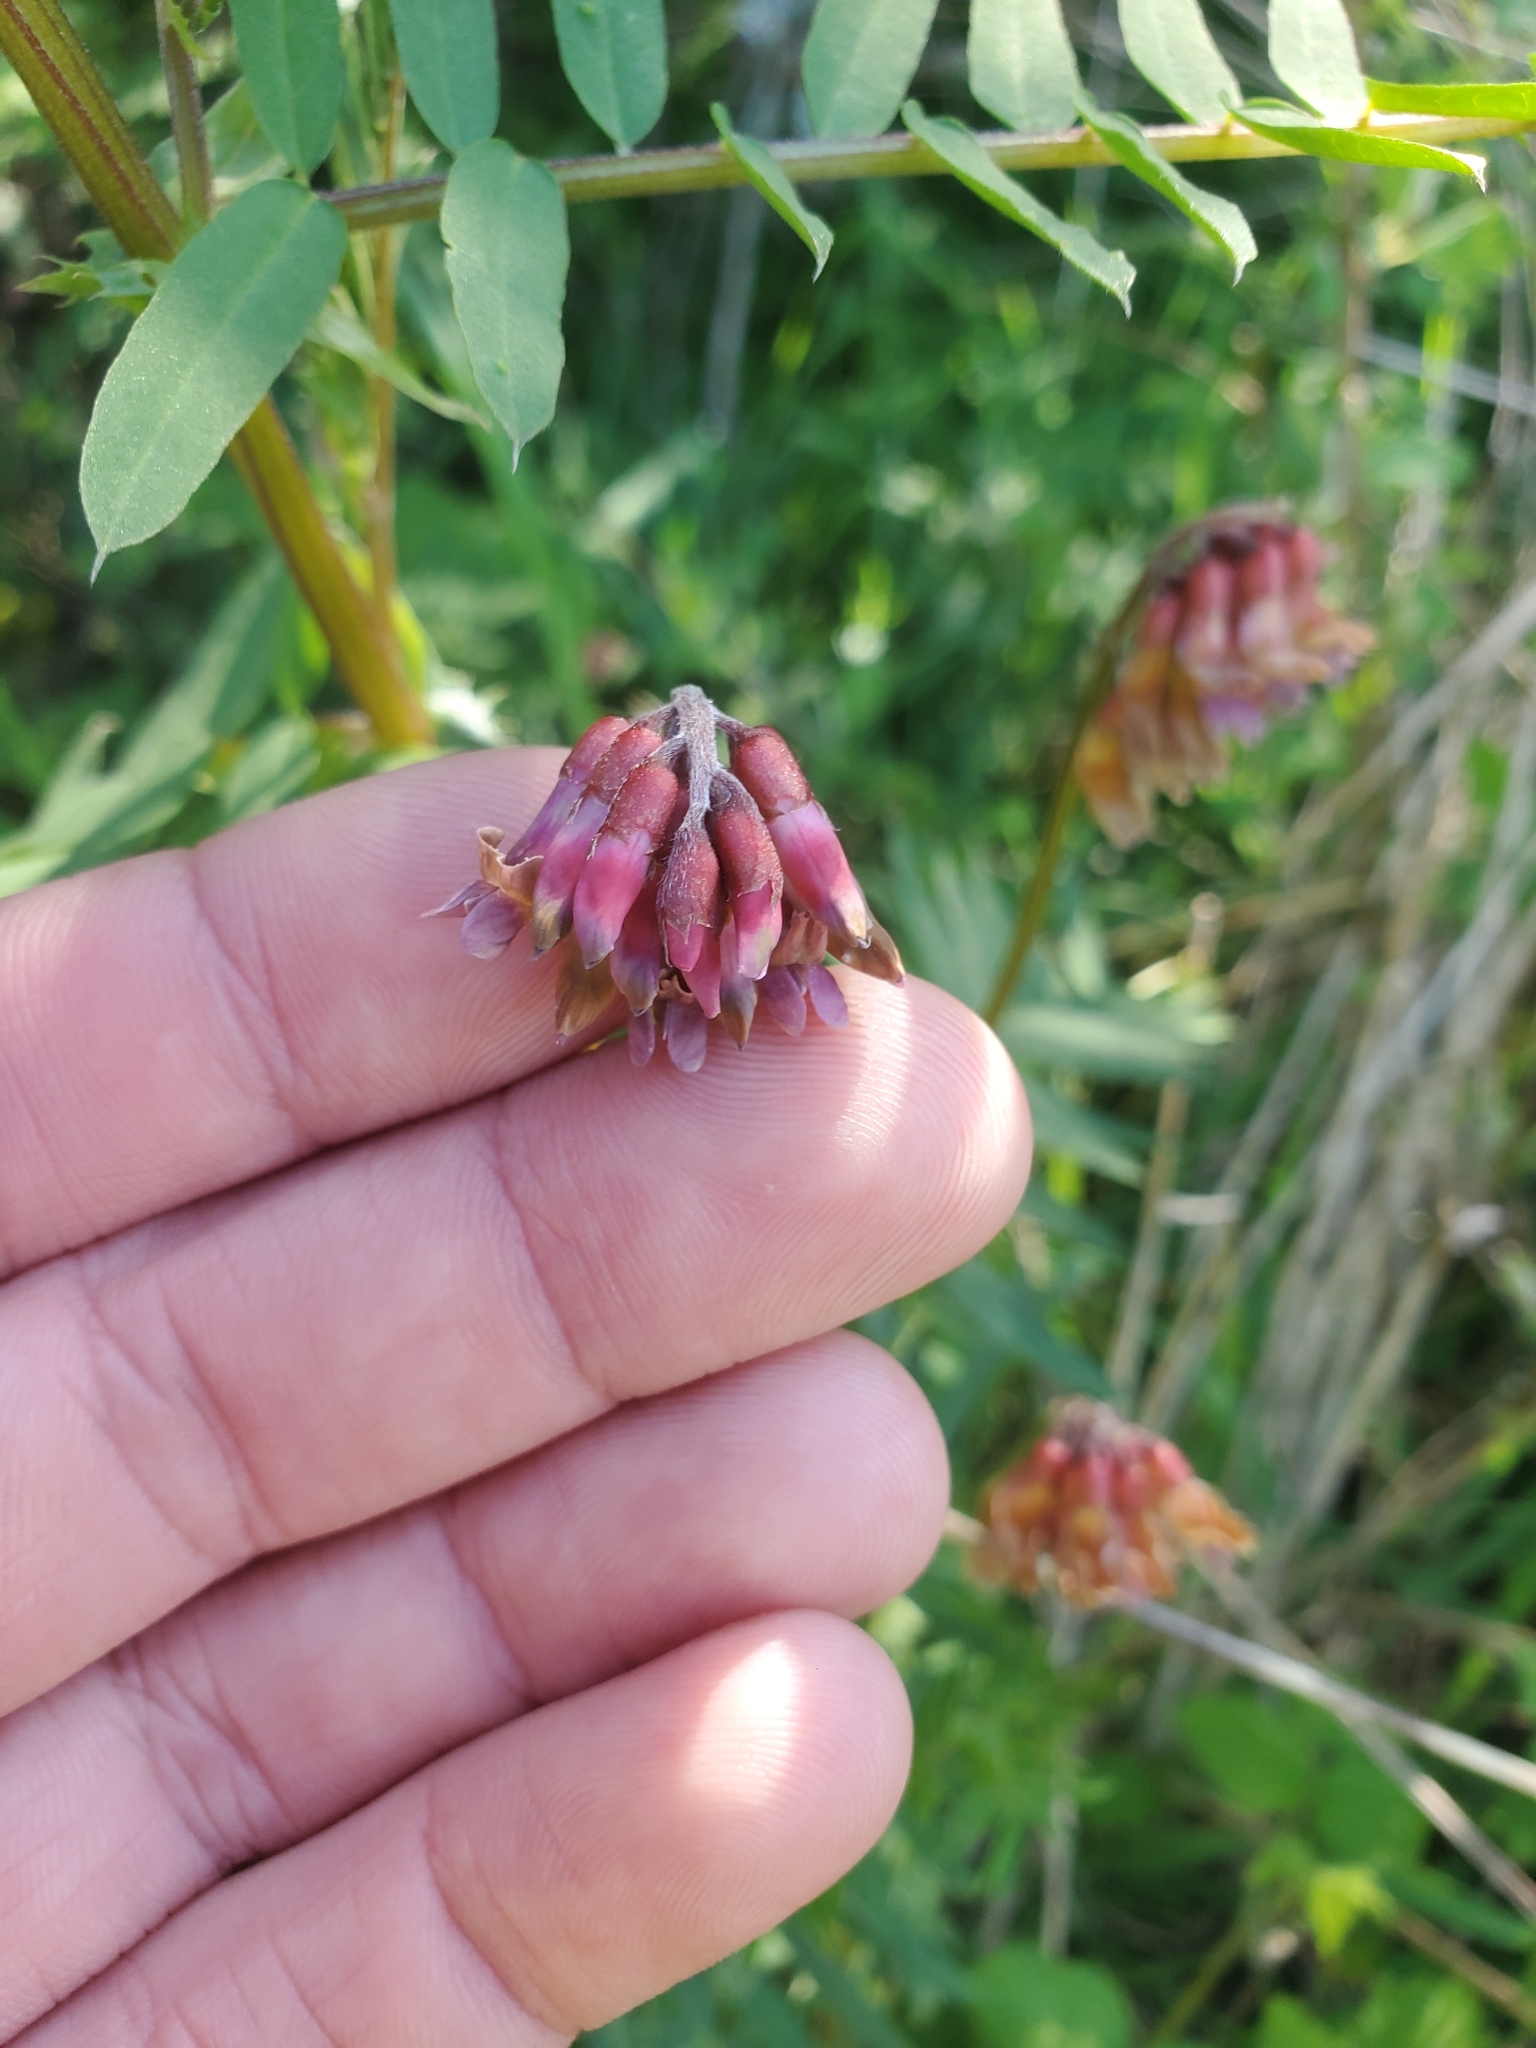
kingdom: Plantae
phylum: Tracheophyta
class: Magnoliopsida
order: Fabales
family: Fabaceae
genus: Vicia
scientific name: Vicia
